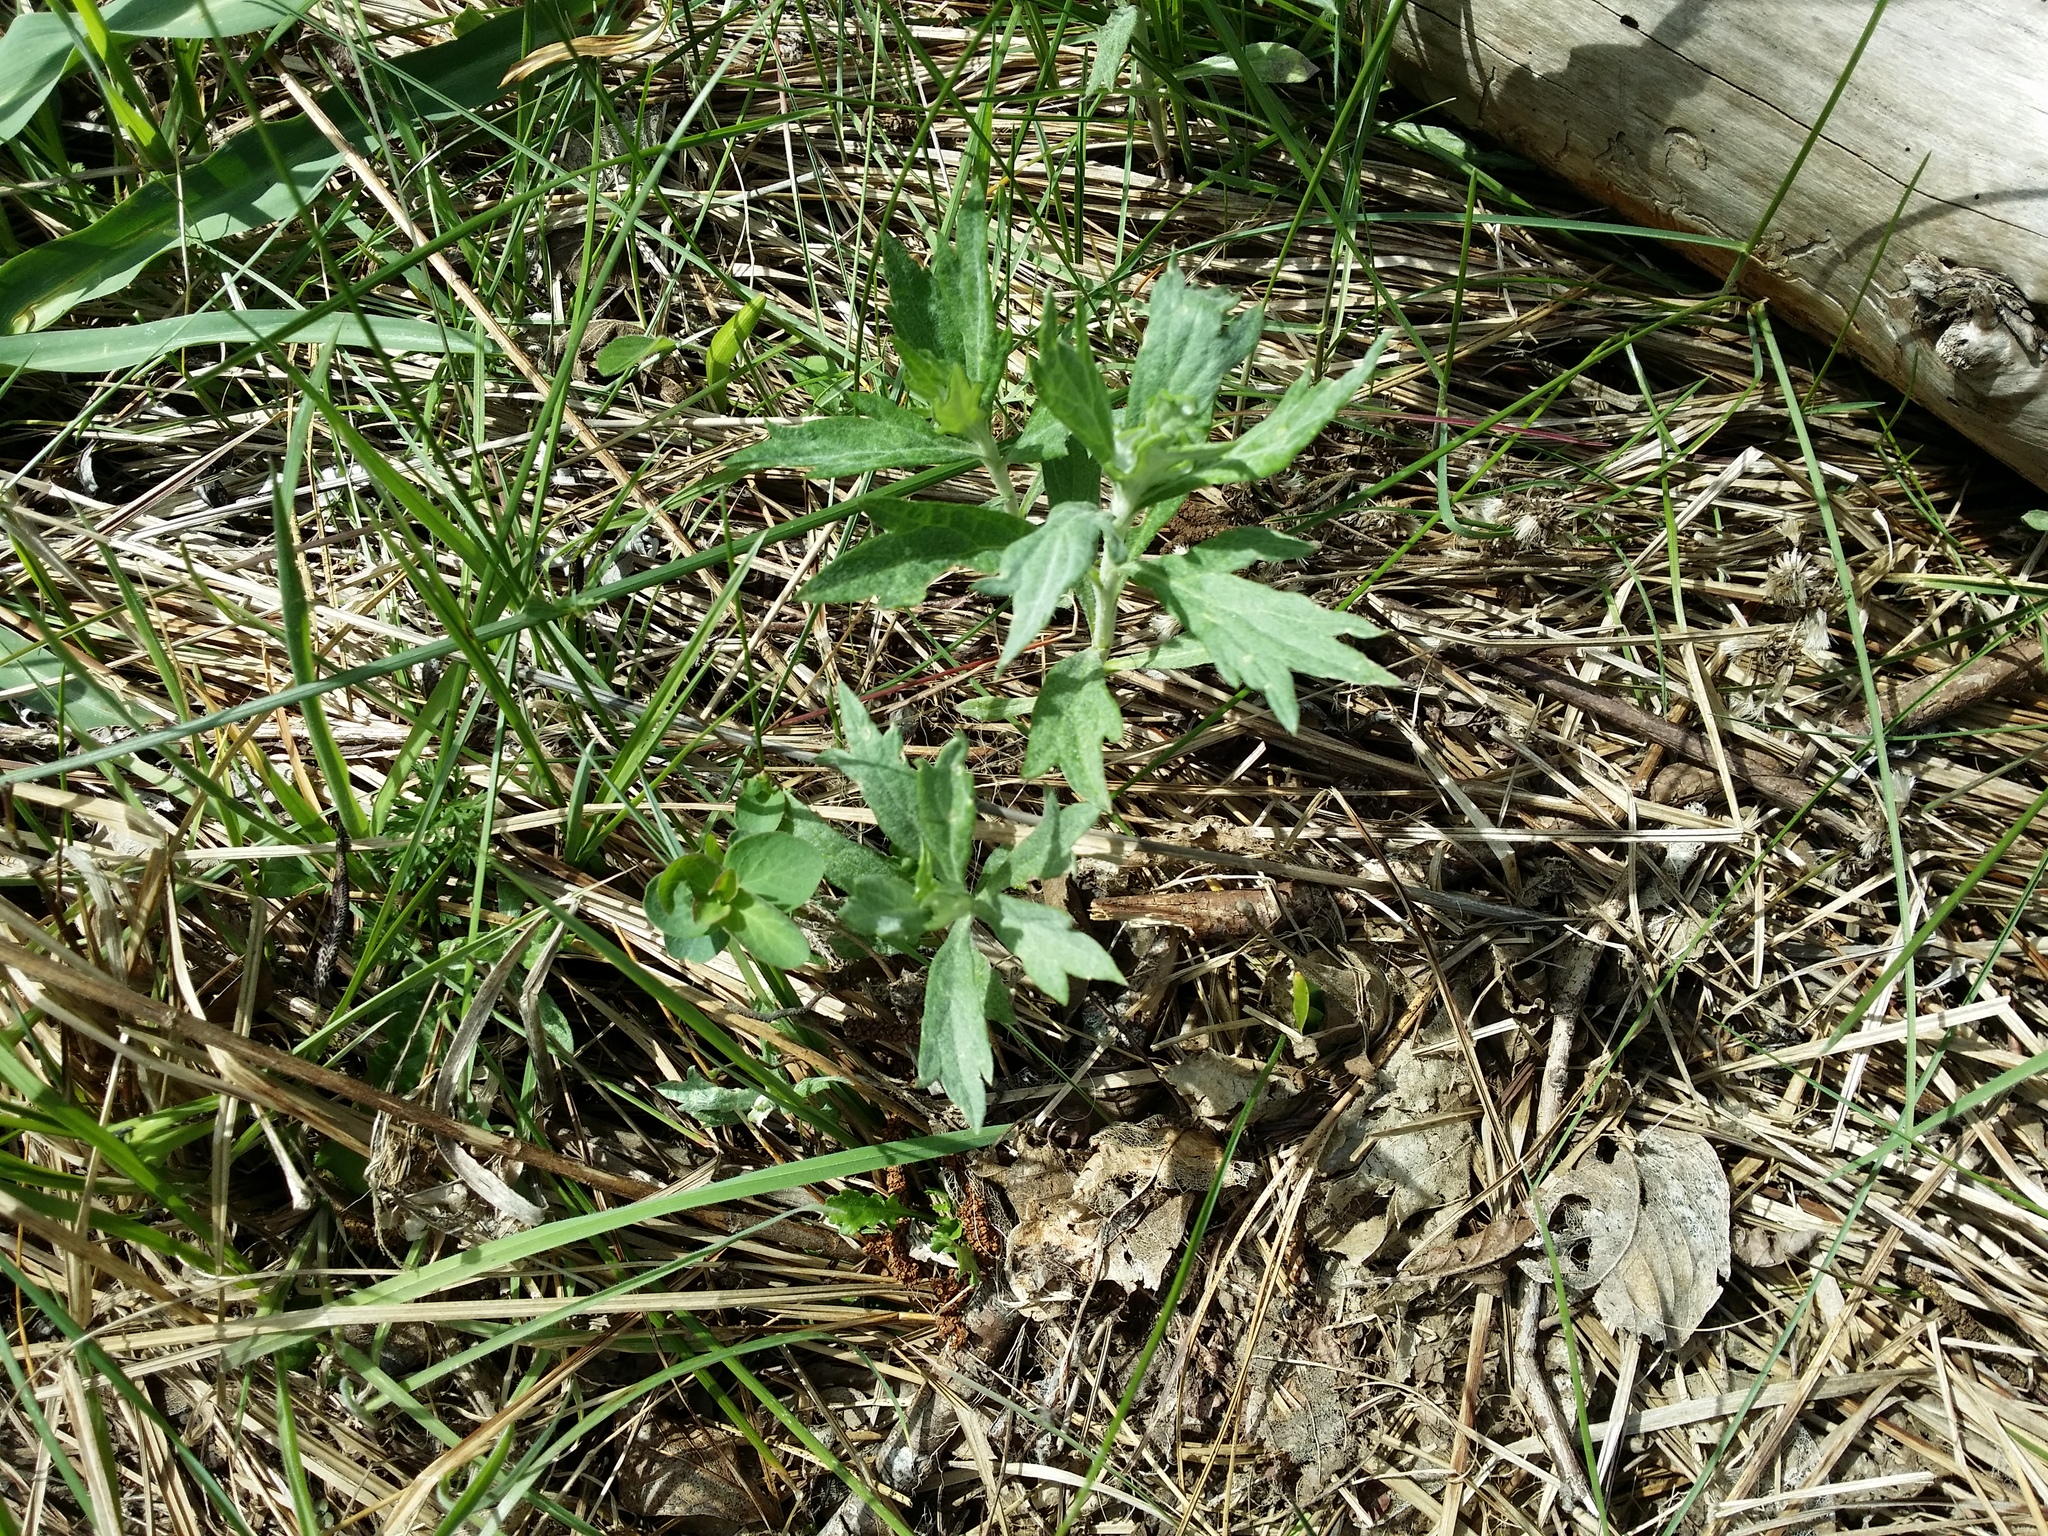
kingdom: Plantae
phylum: Tracheophyta
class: Magnoliopsida
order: Asterales
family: Asteraceae
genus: Artemisia
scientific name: Artemisia douglasiana
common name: Northwest mugwort
